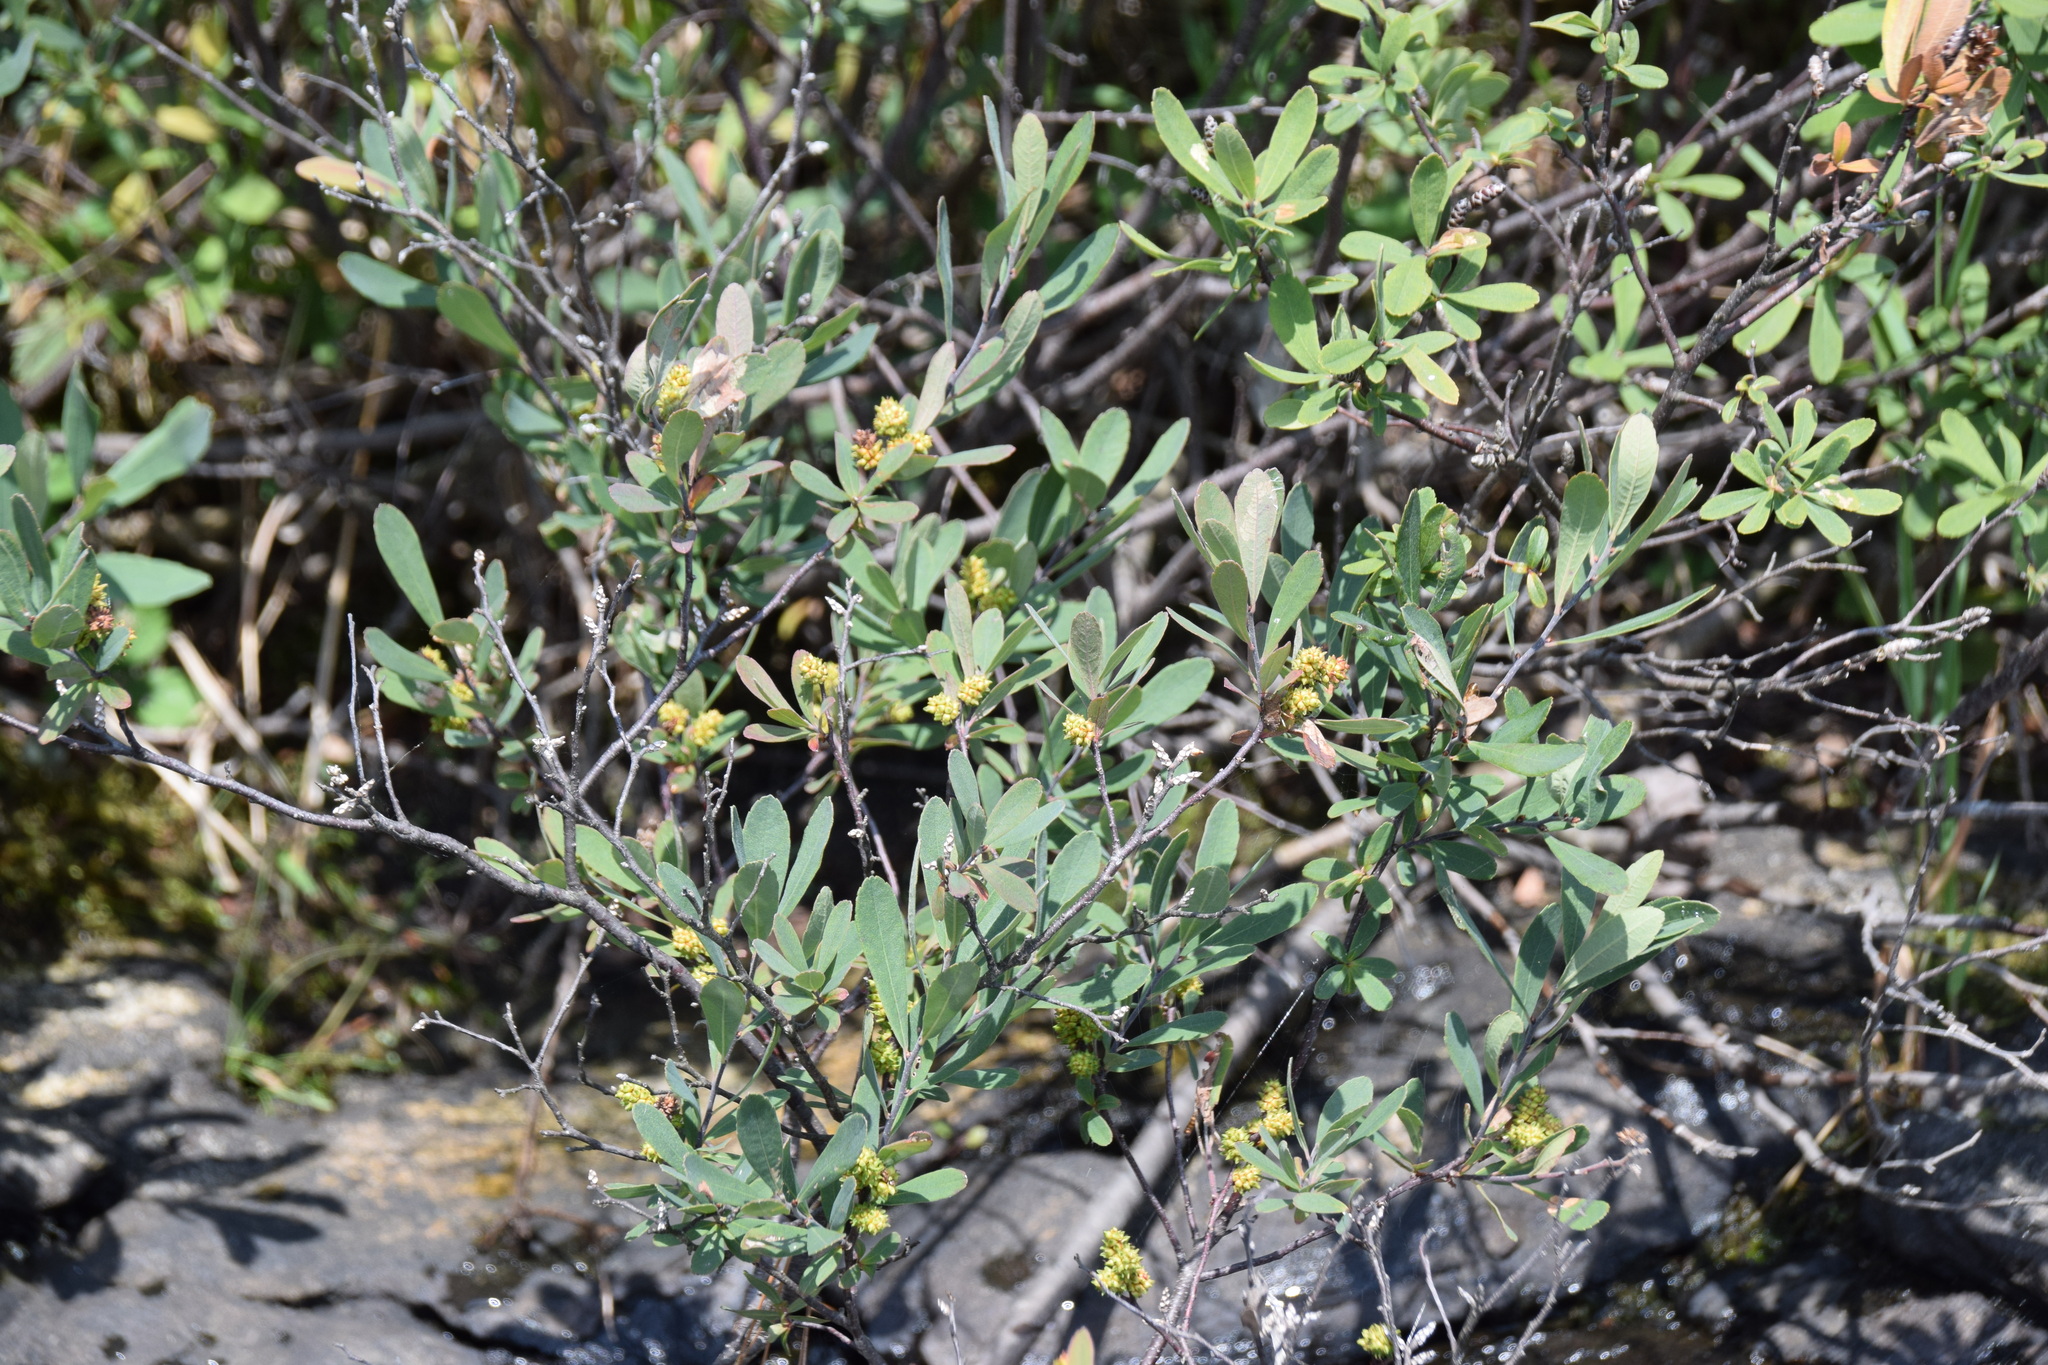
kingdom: Plantae
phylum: Tracheophyta
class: Magnoliopsida
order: Fagales
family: Myricaceae
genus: Myrica
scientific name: Myrica gale
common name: Sweet gale
